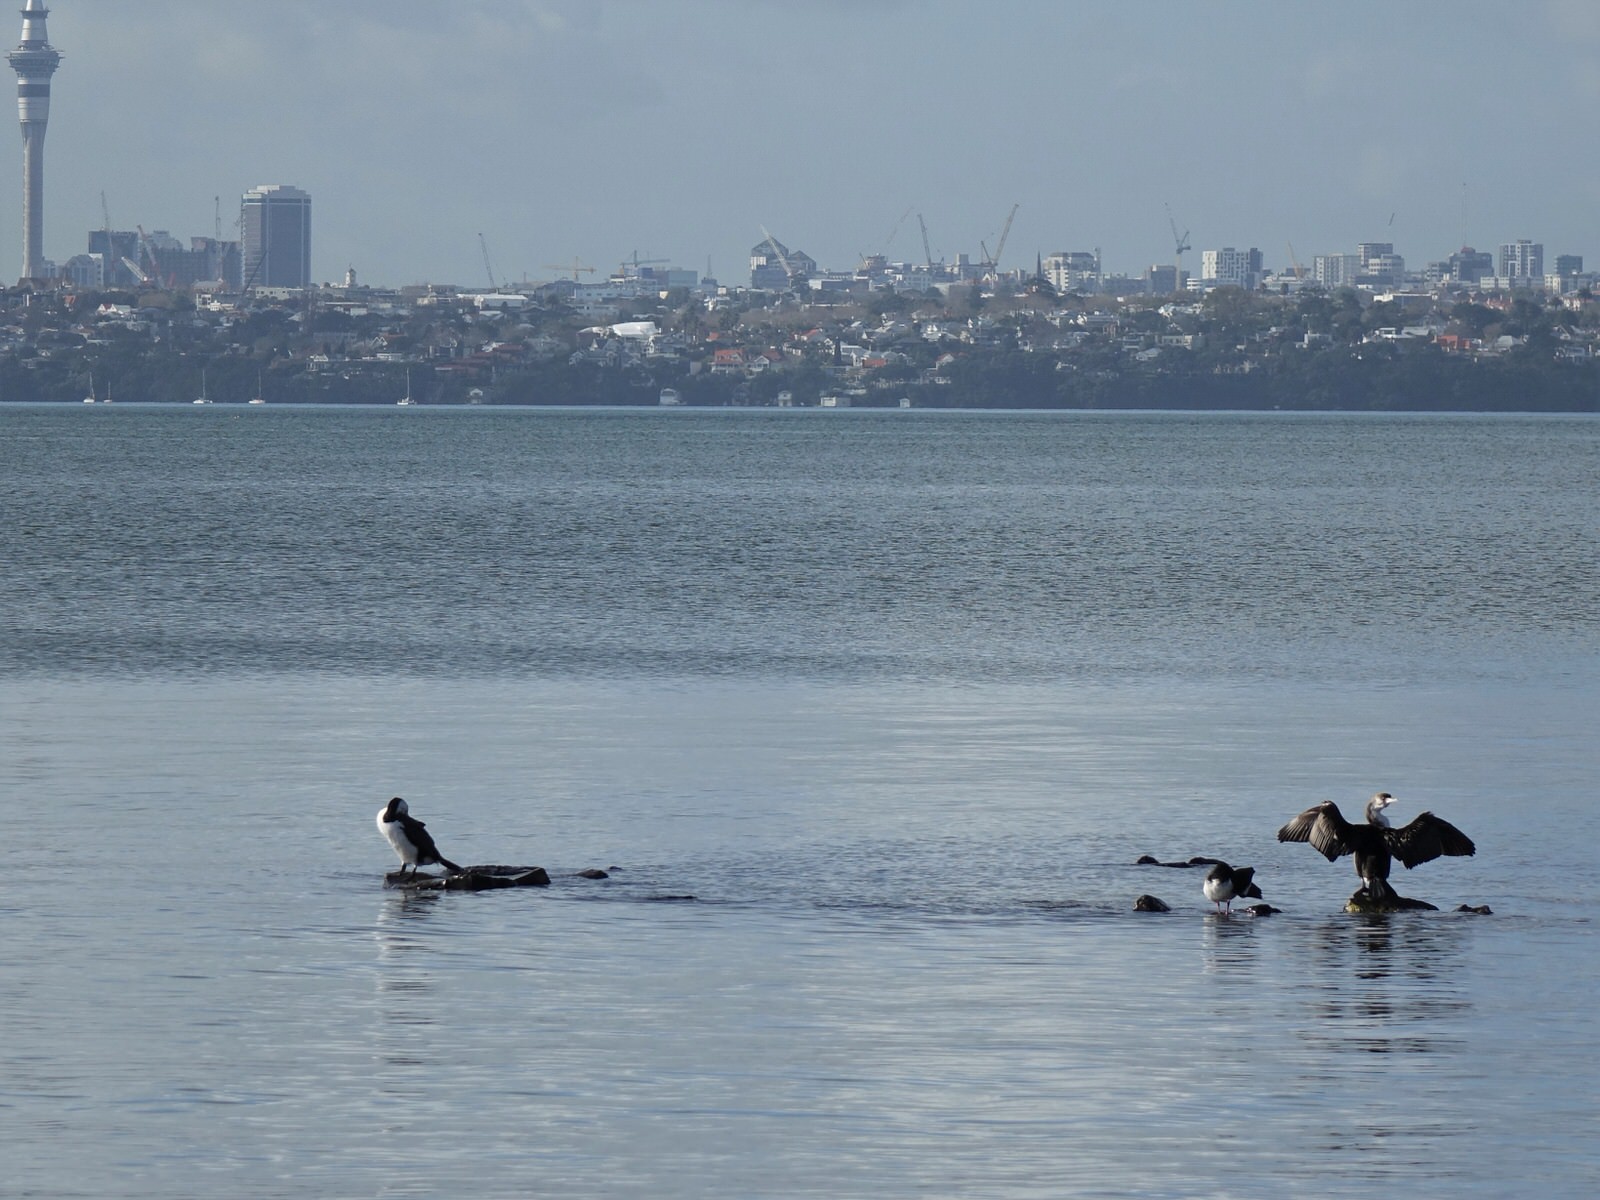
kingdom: Animalia
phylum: Chordata
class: Aves
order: Suliformes
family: Phalacrocoracidae
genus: Phalacrocorax
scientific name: Phalacrocorax varius
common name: Pied cormorant
